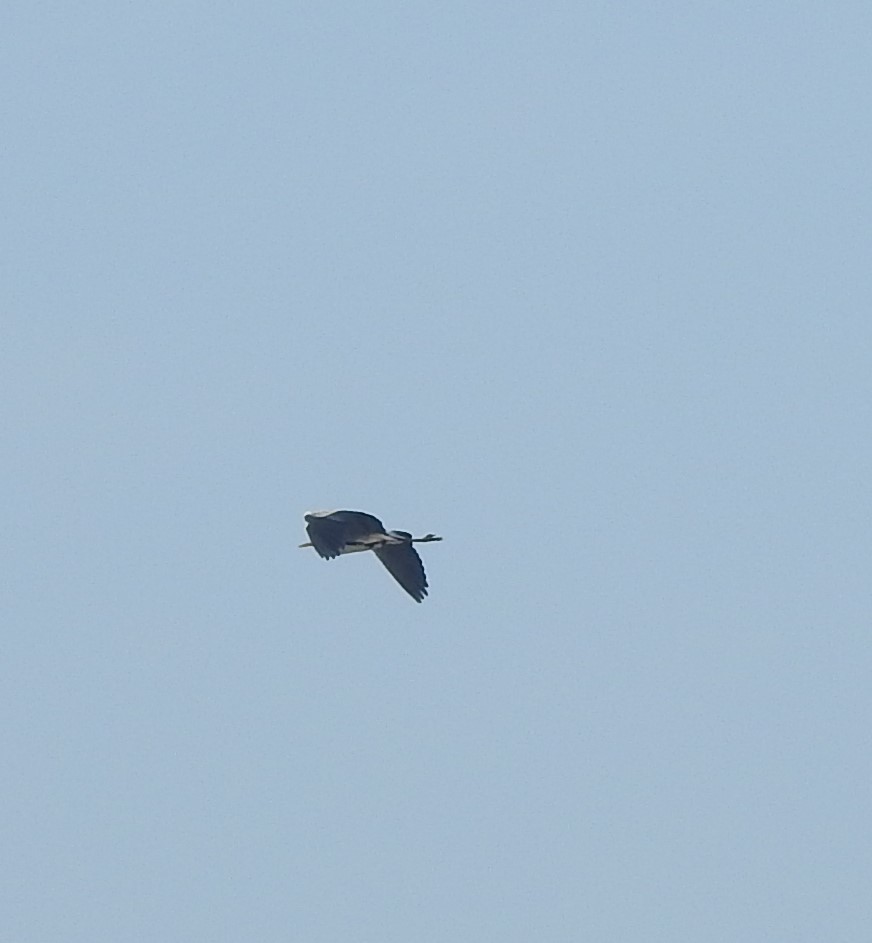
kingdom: Animalia
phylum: Chordata
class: Aves
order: Pelecaniformes
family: Ardeidae
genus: Ardea
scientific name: Ardea cinerea
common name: Grey heron
